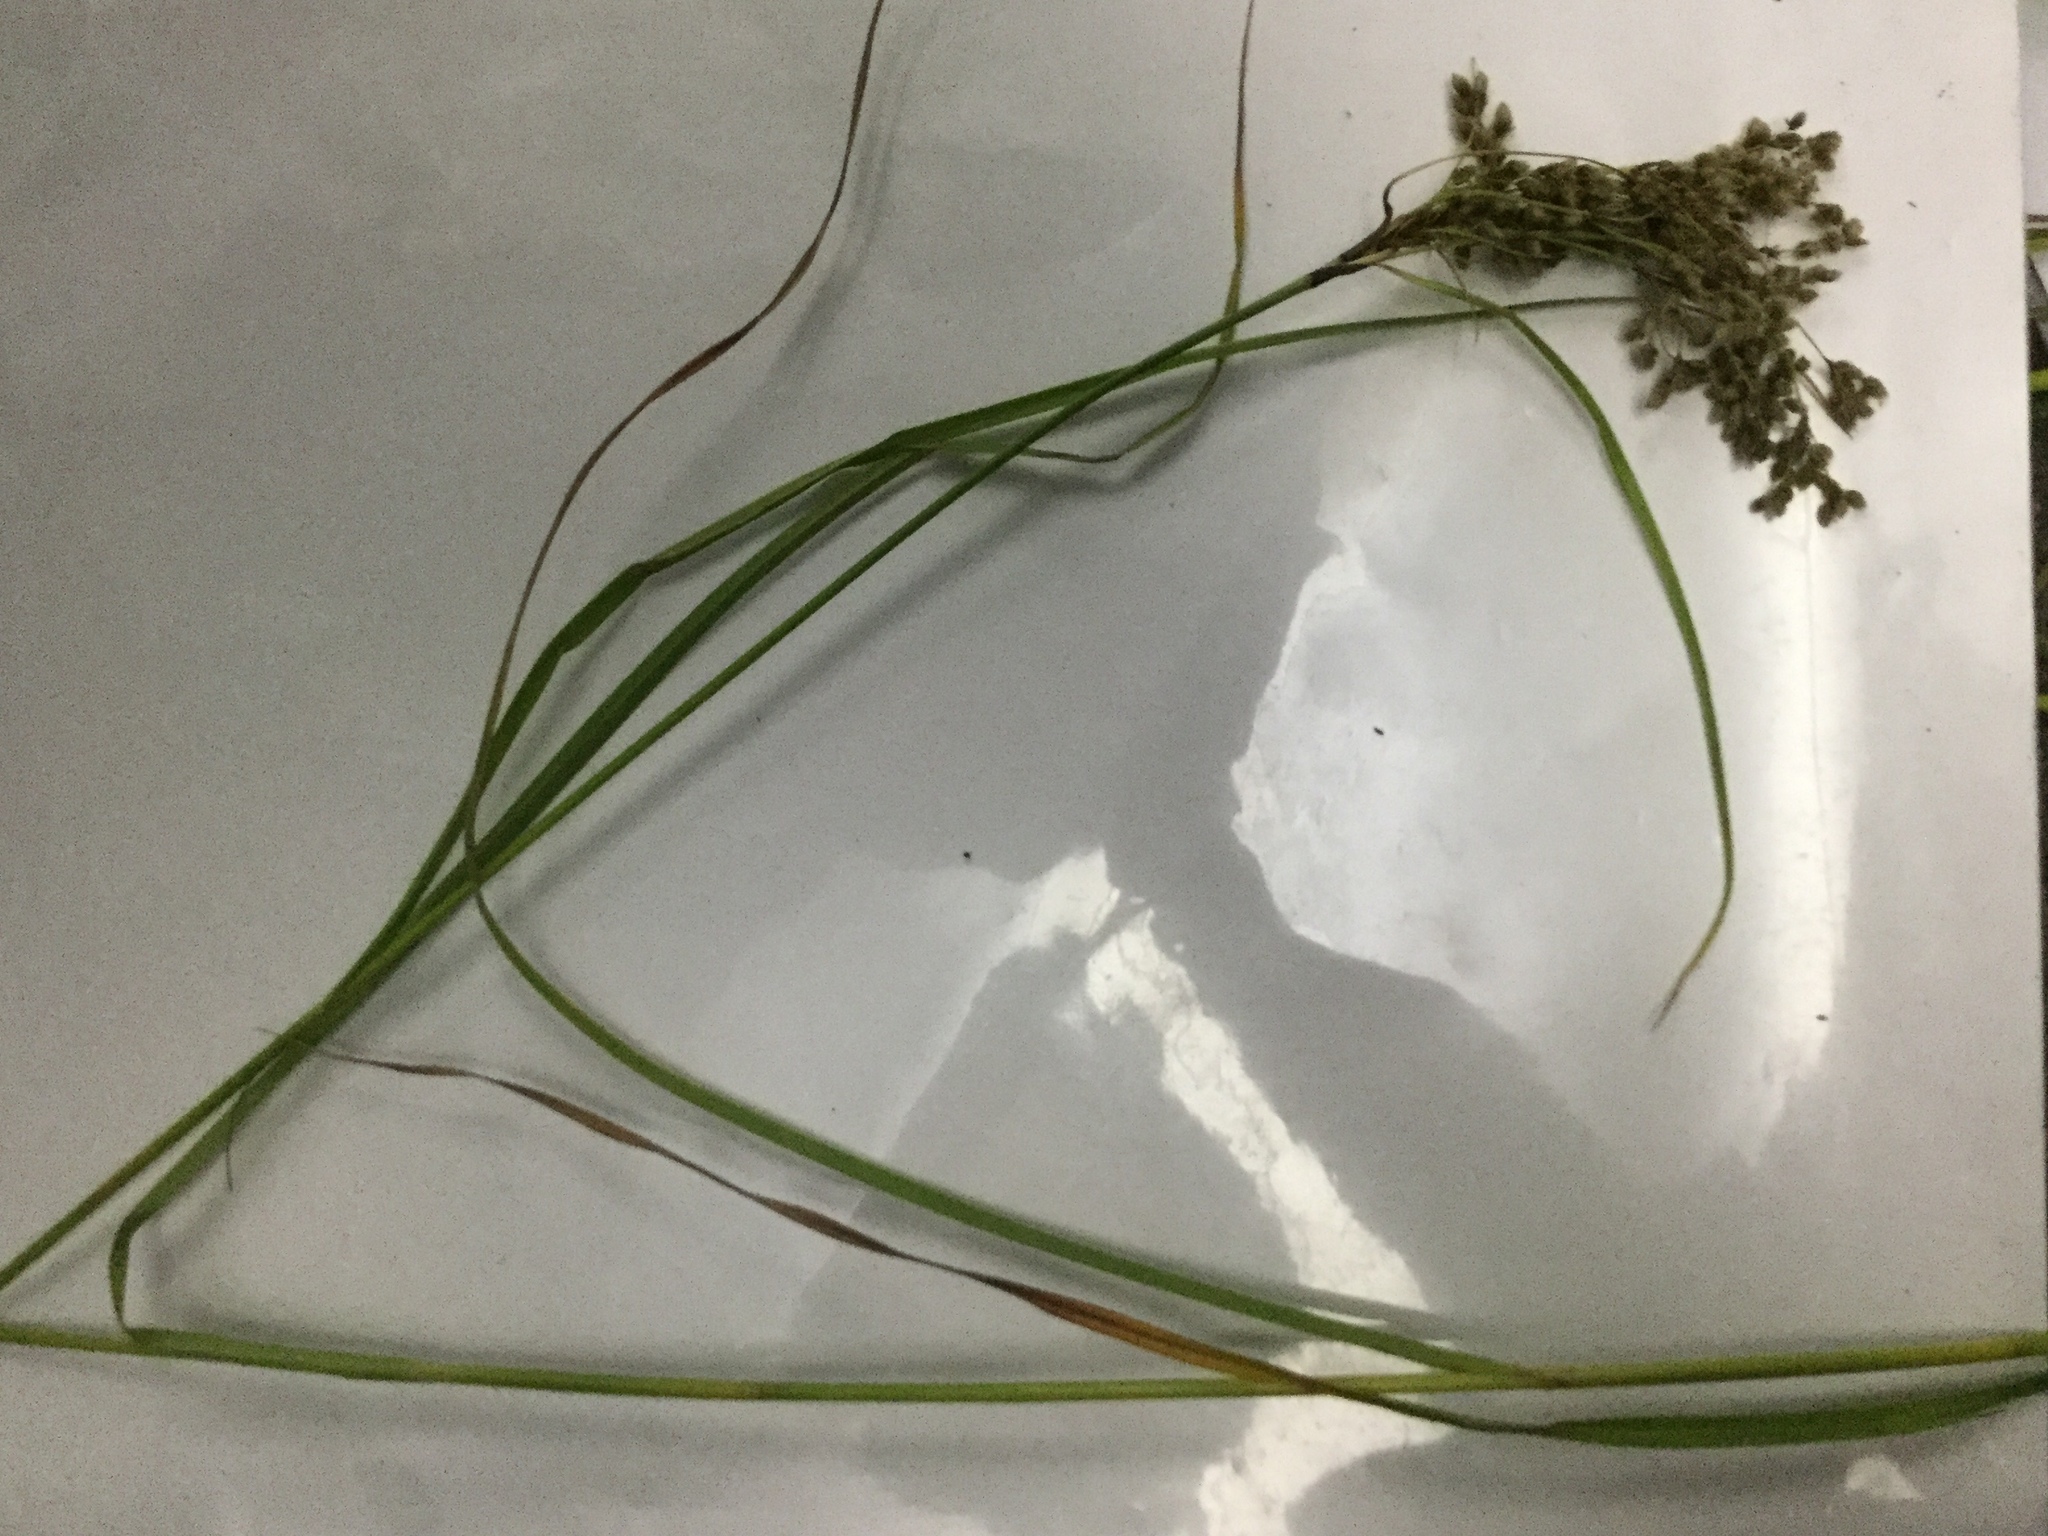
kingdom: Plantae
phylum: Tracheophyta
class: Liliopsida
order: Poales
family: Cyperaceae
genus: Scirpus
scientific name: Scirpus cyperinus
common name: Black-sheathed bulrush
